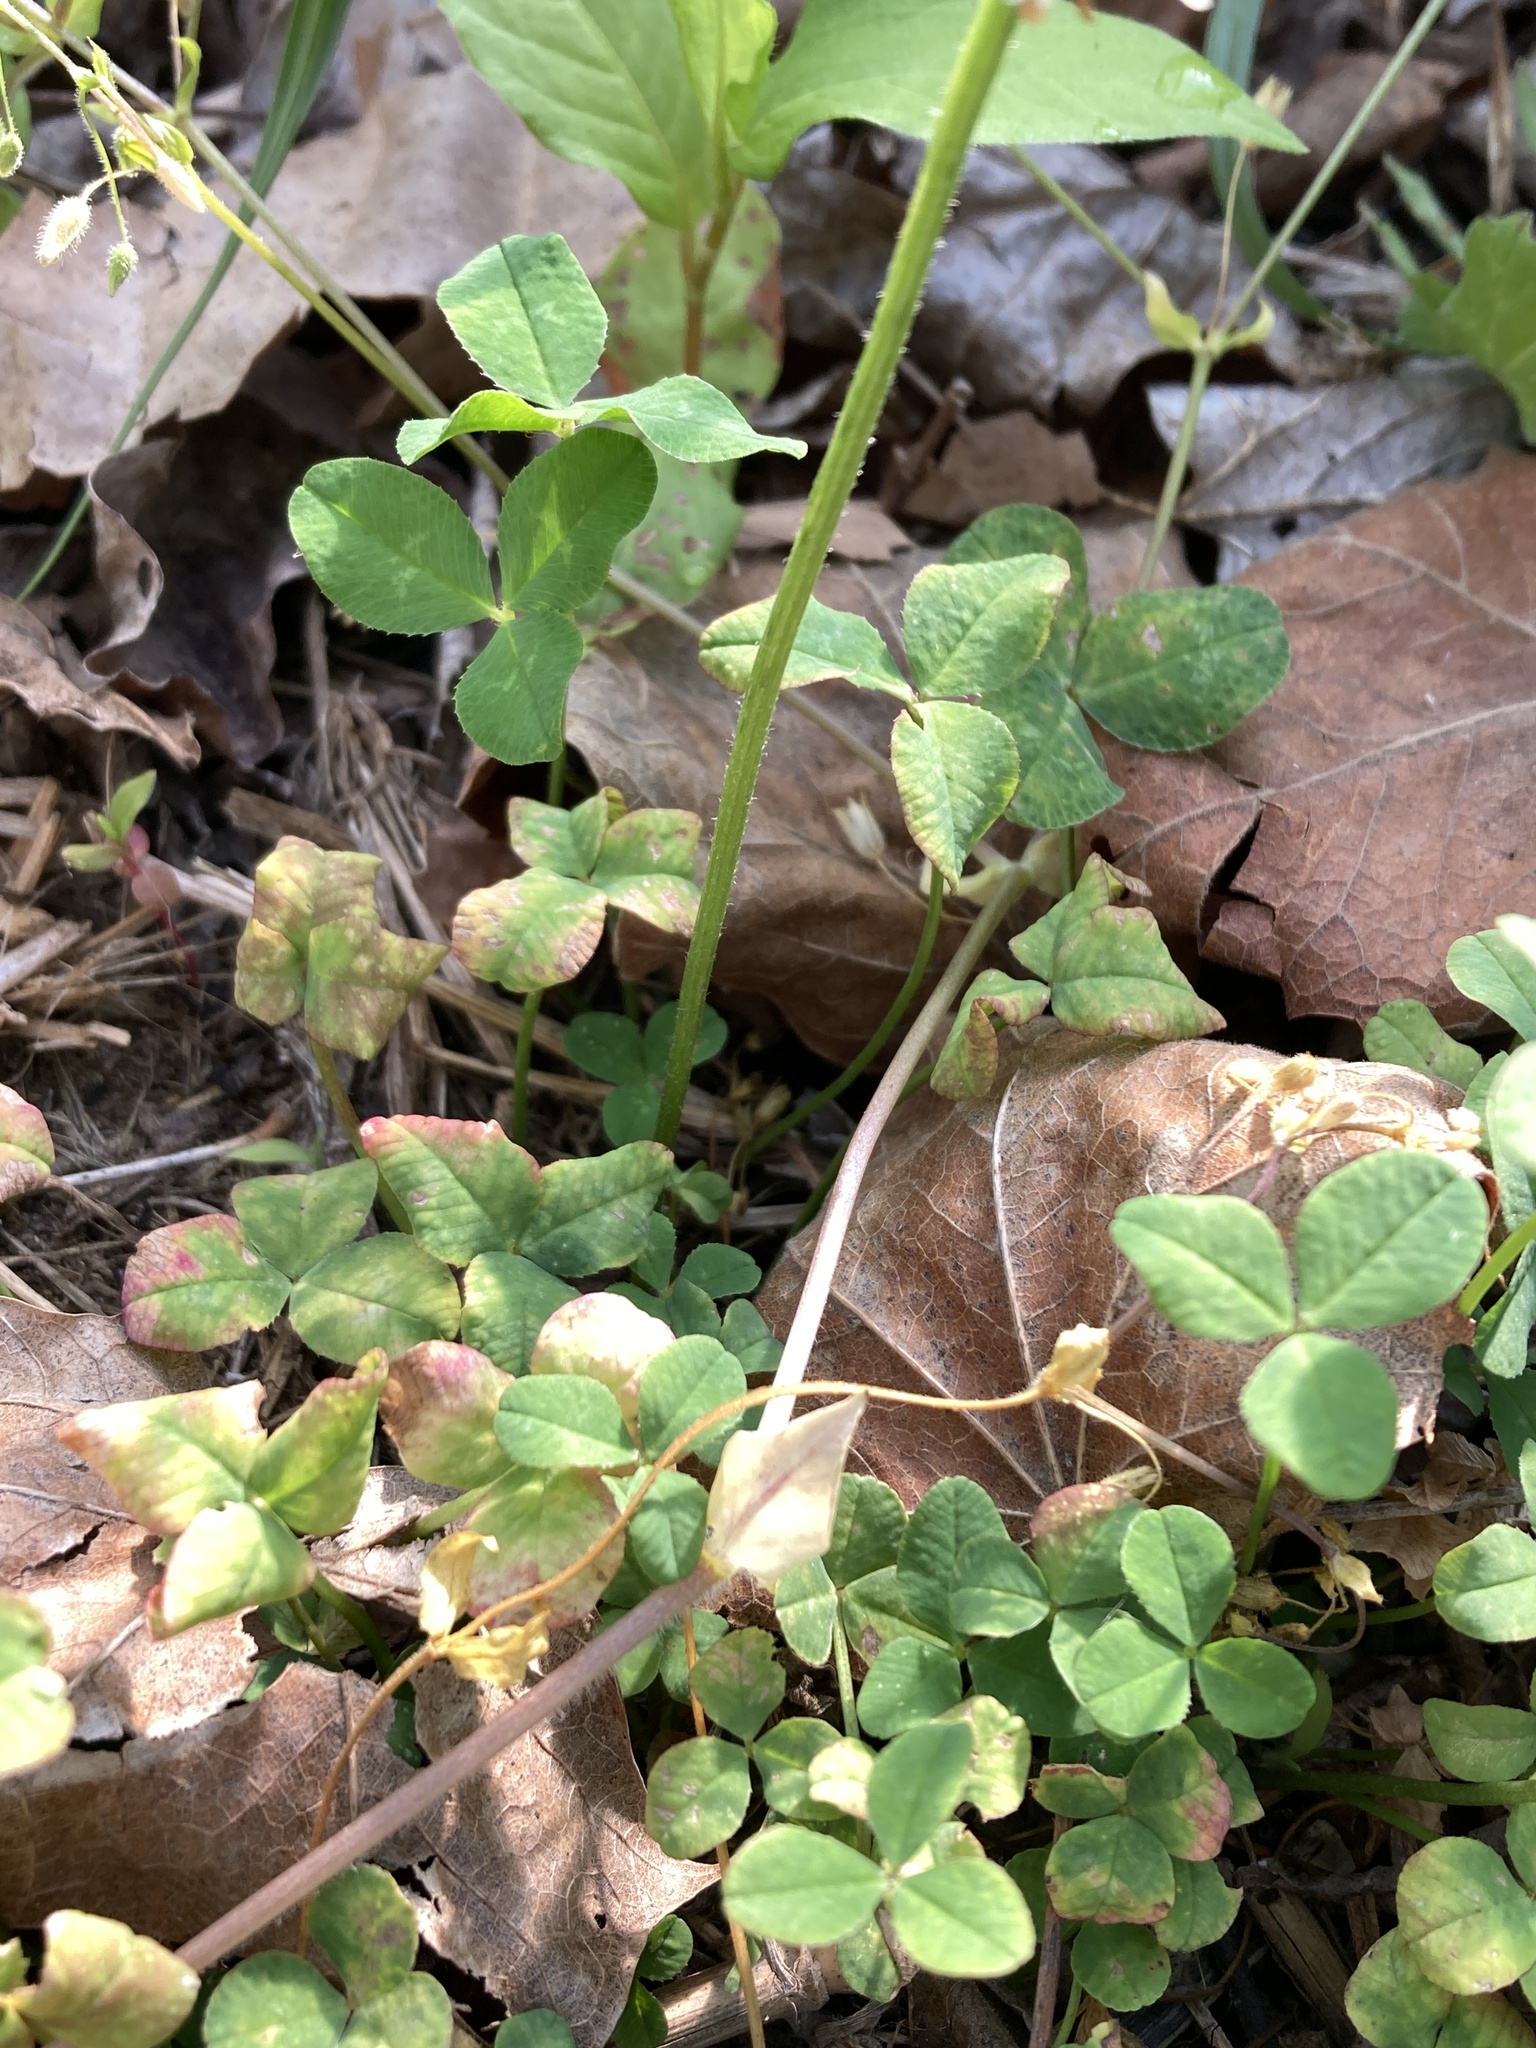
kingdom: Plantae
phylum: Tracheophyta
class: Magnoliopsida
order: Fabales
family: Fabaceae
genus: Trifolium
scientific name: Trifolium repens
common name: White clover
